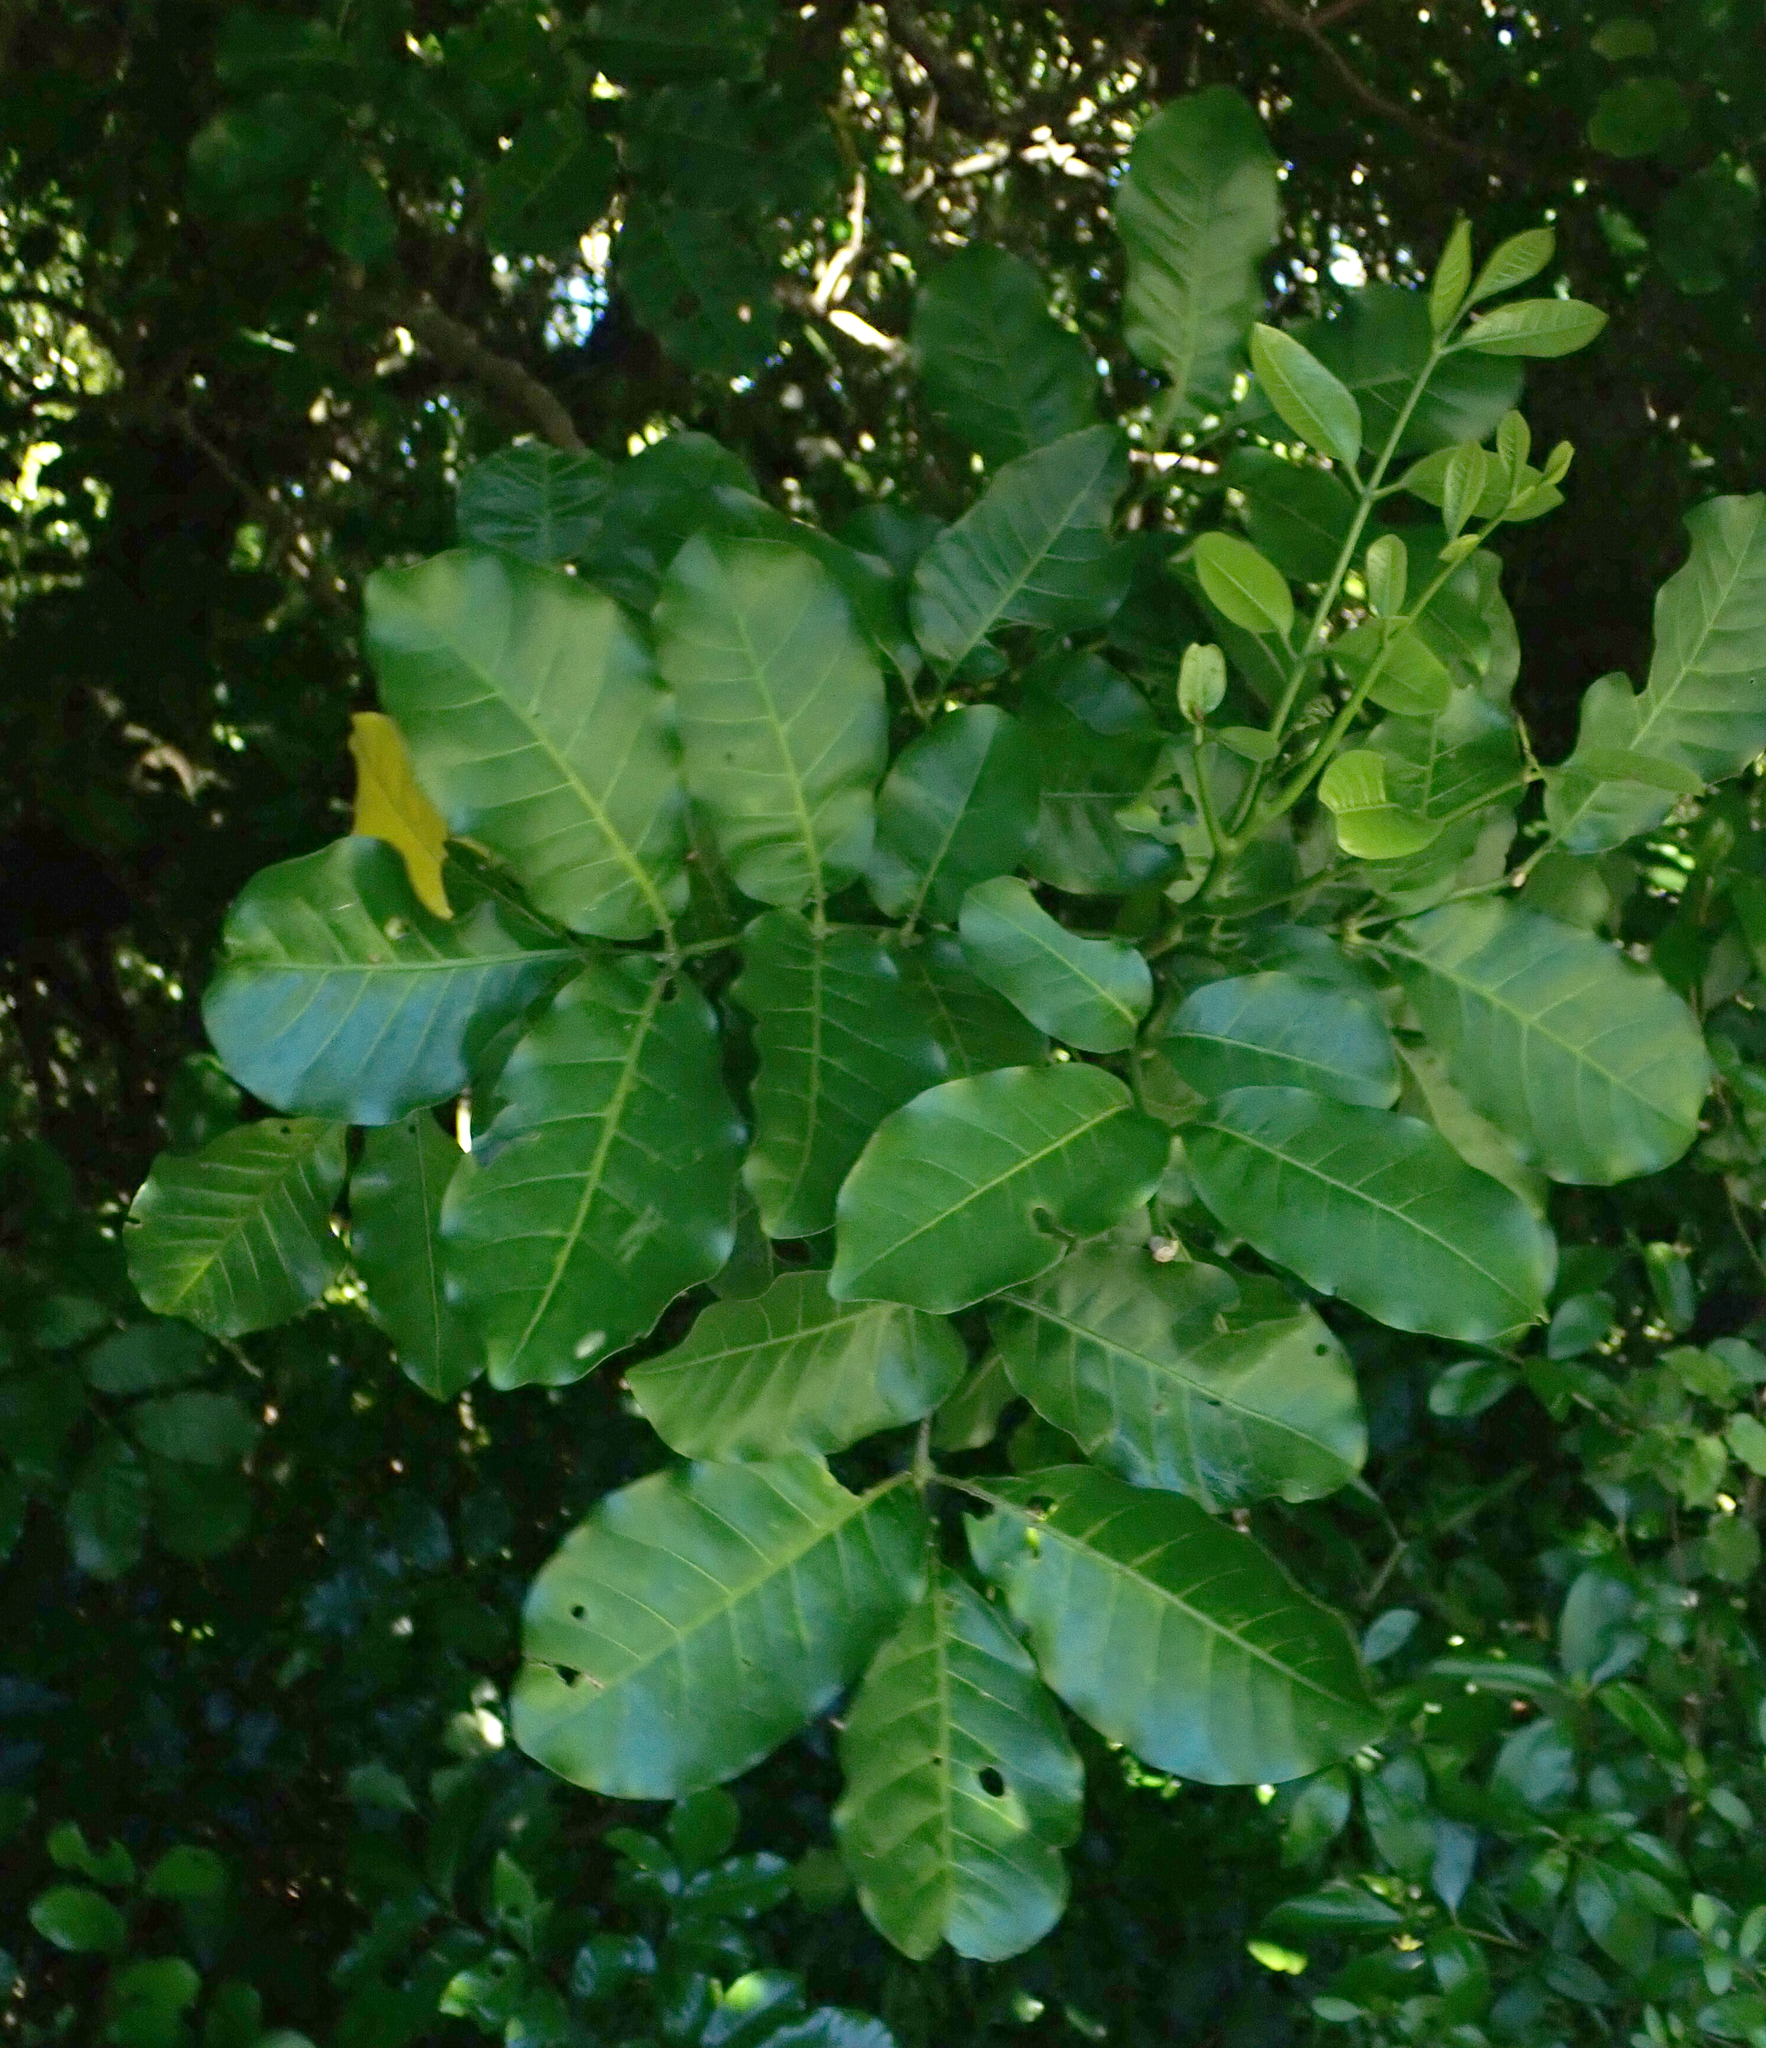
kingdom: Plantae
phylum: Tracheophyta
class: Magnoliopsida
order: Sapindales
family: Meliaceae
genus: Didymocheton
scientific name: Didymocheton spectabilis
